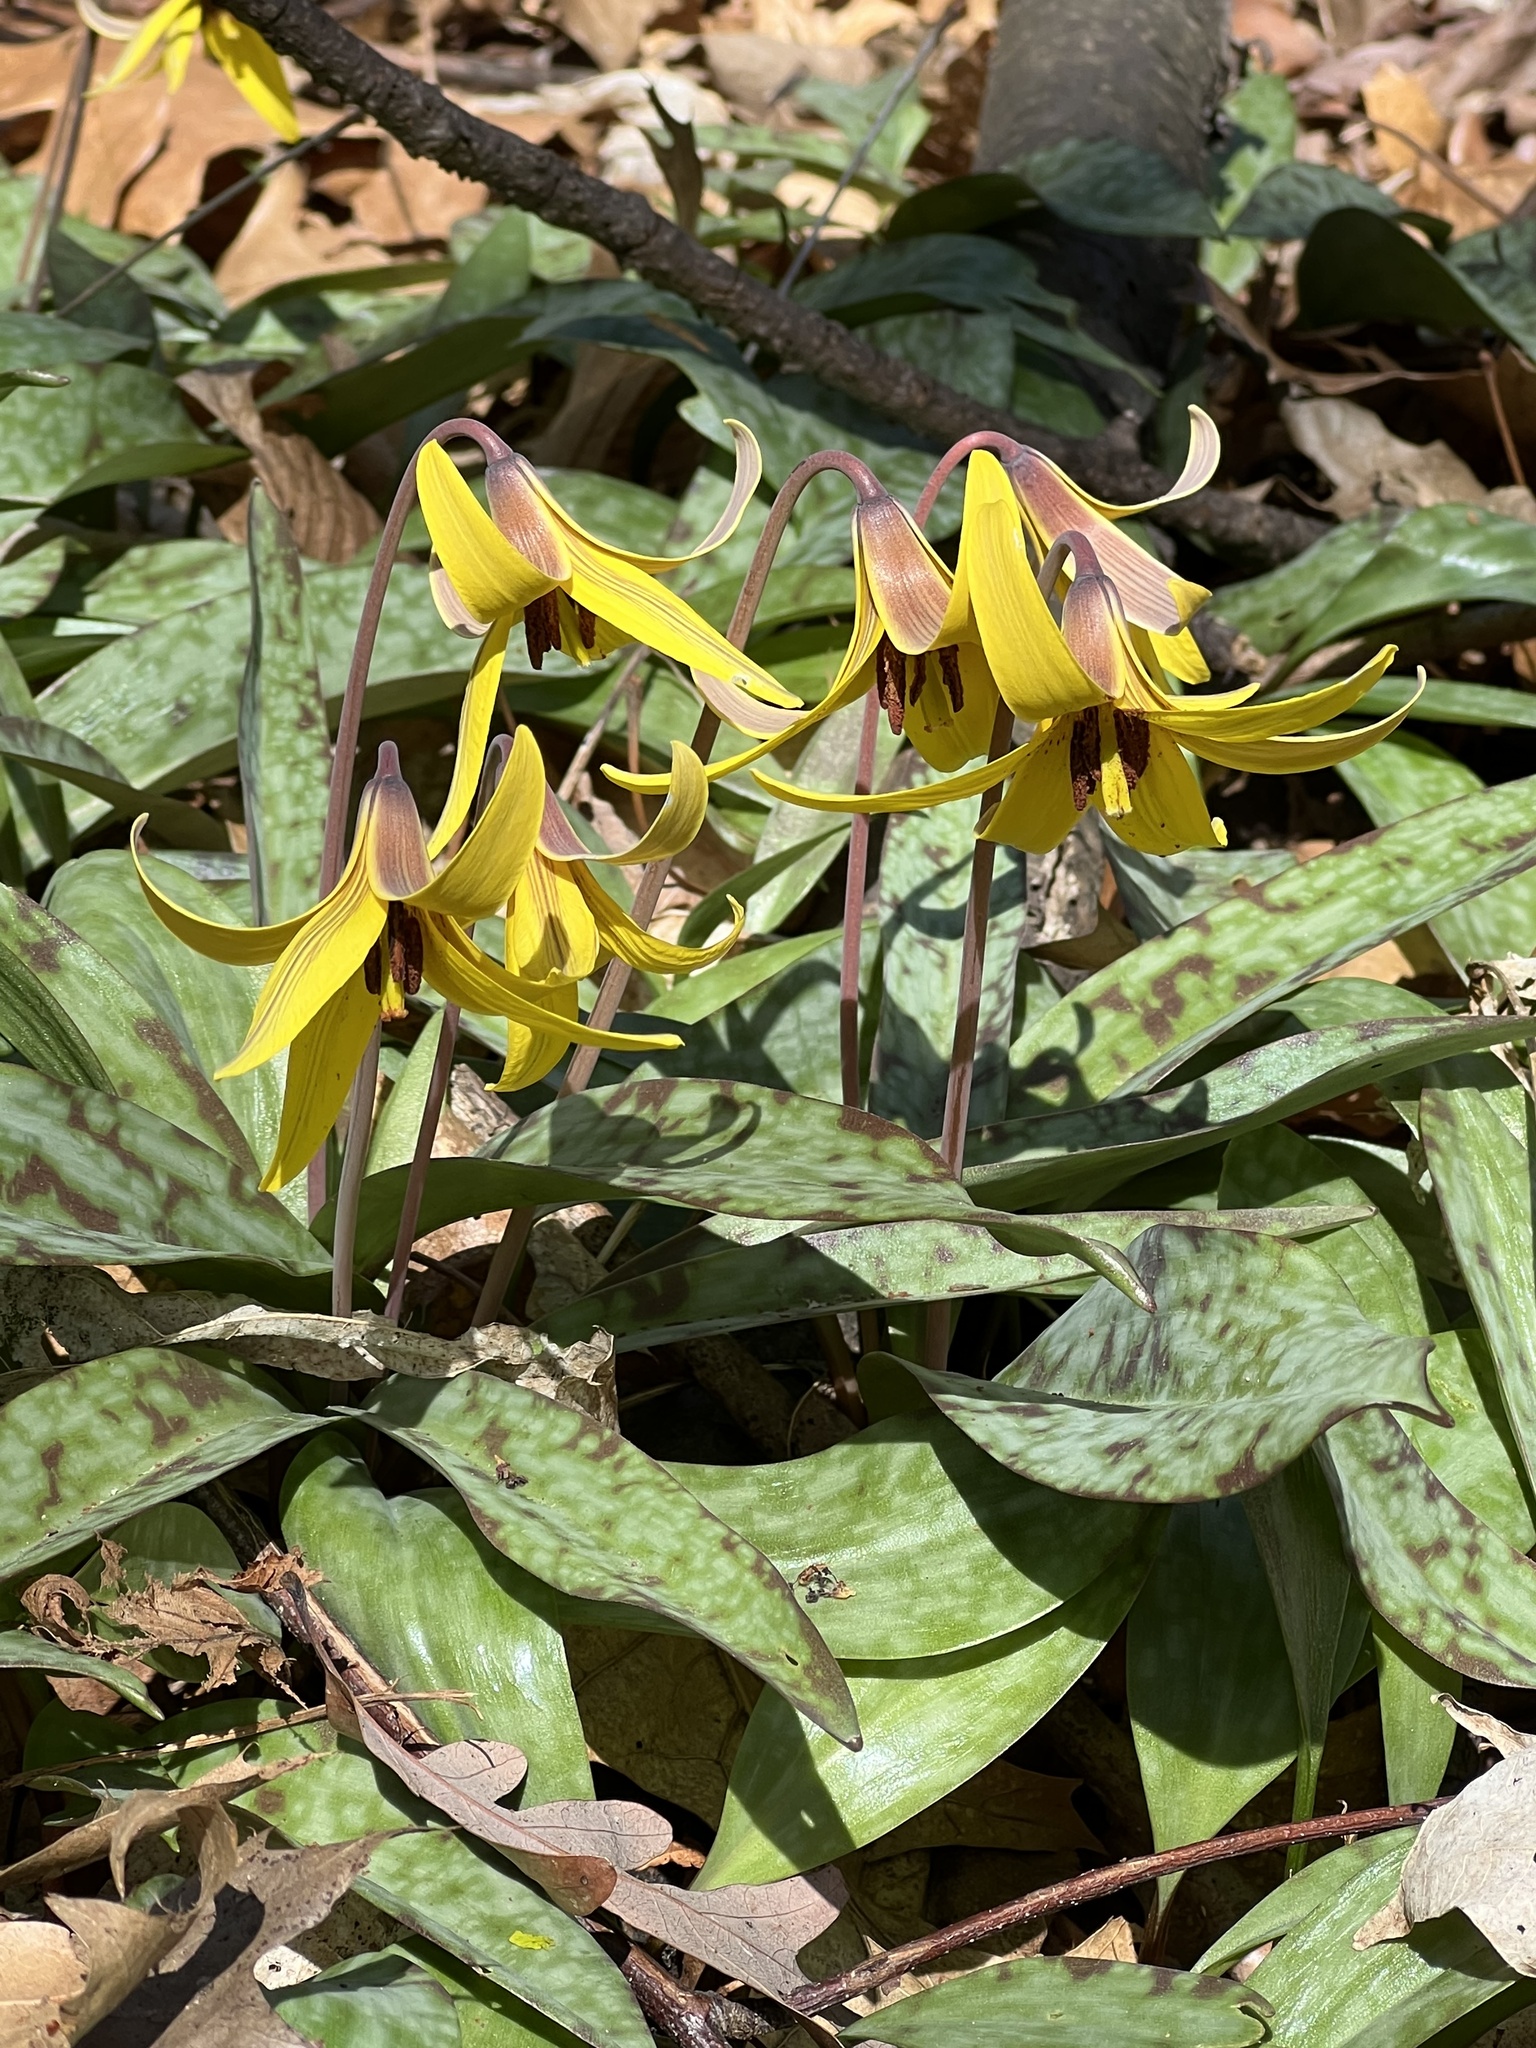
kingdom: Plantae
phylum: Tracheophyta
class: Liliopsida
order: Liliales
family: Liliaceae
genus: Erythronium
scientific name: Erythronium americanum
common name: Yellow adder's-tongue
